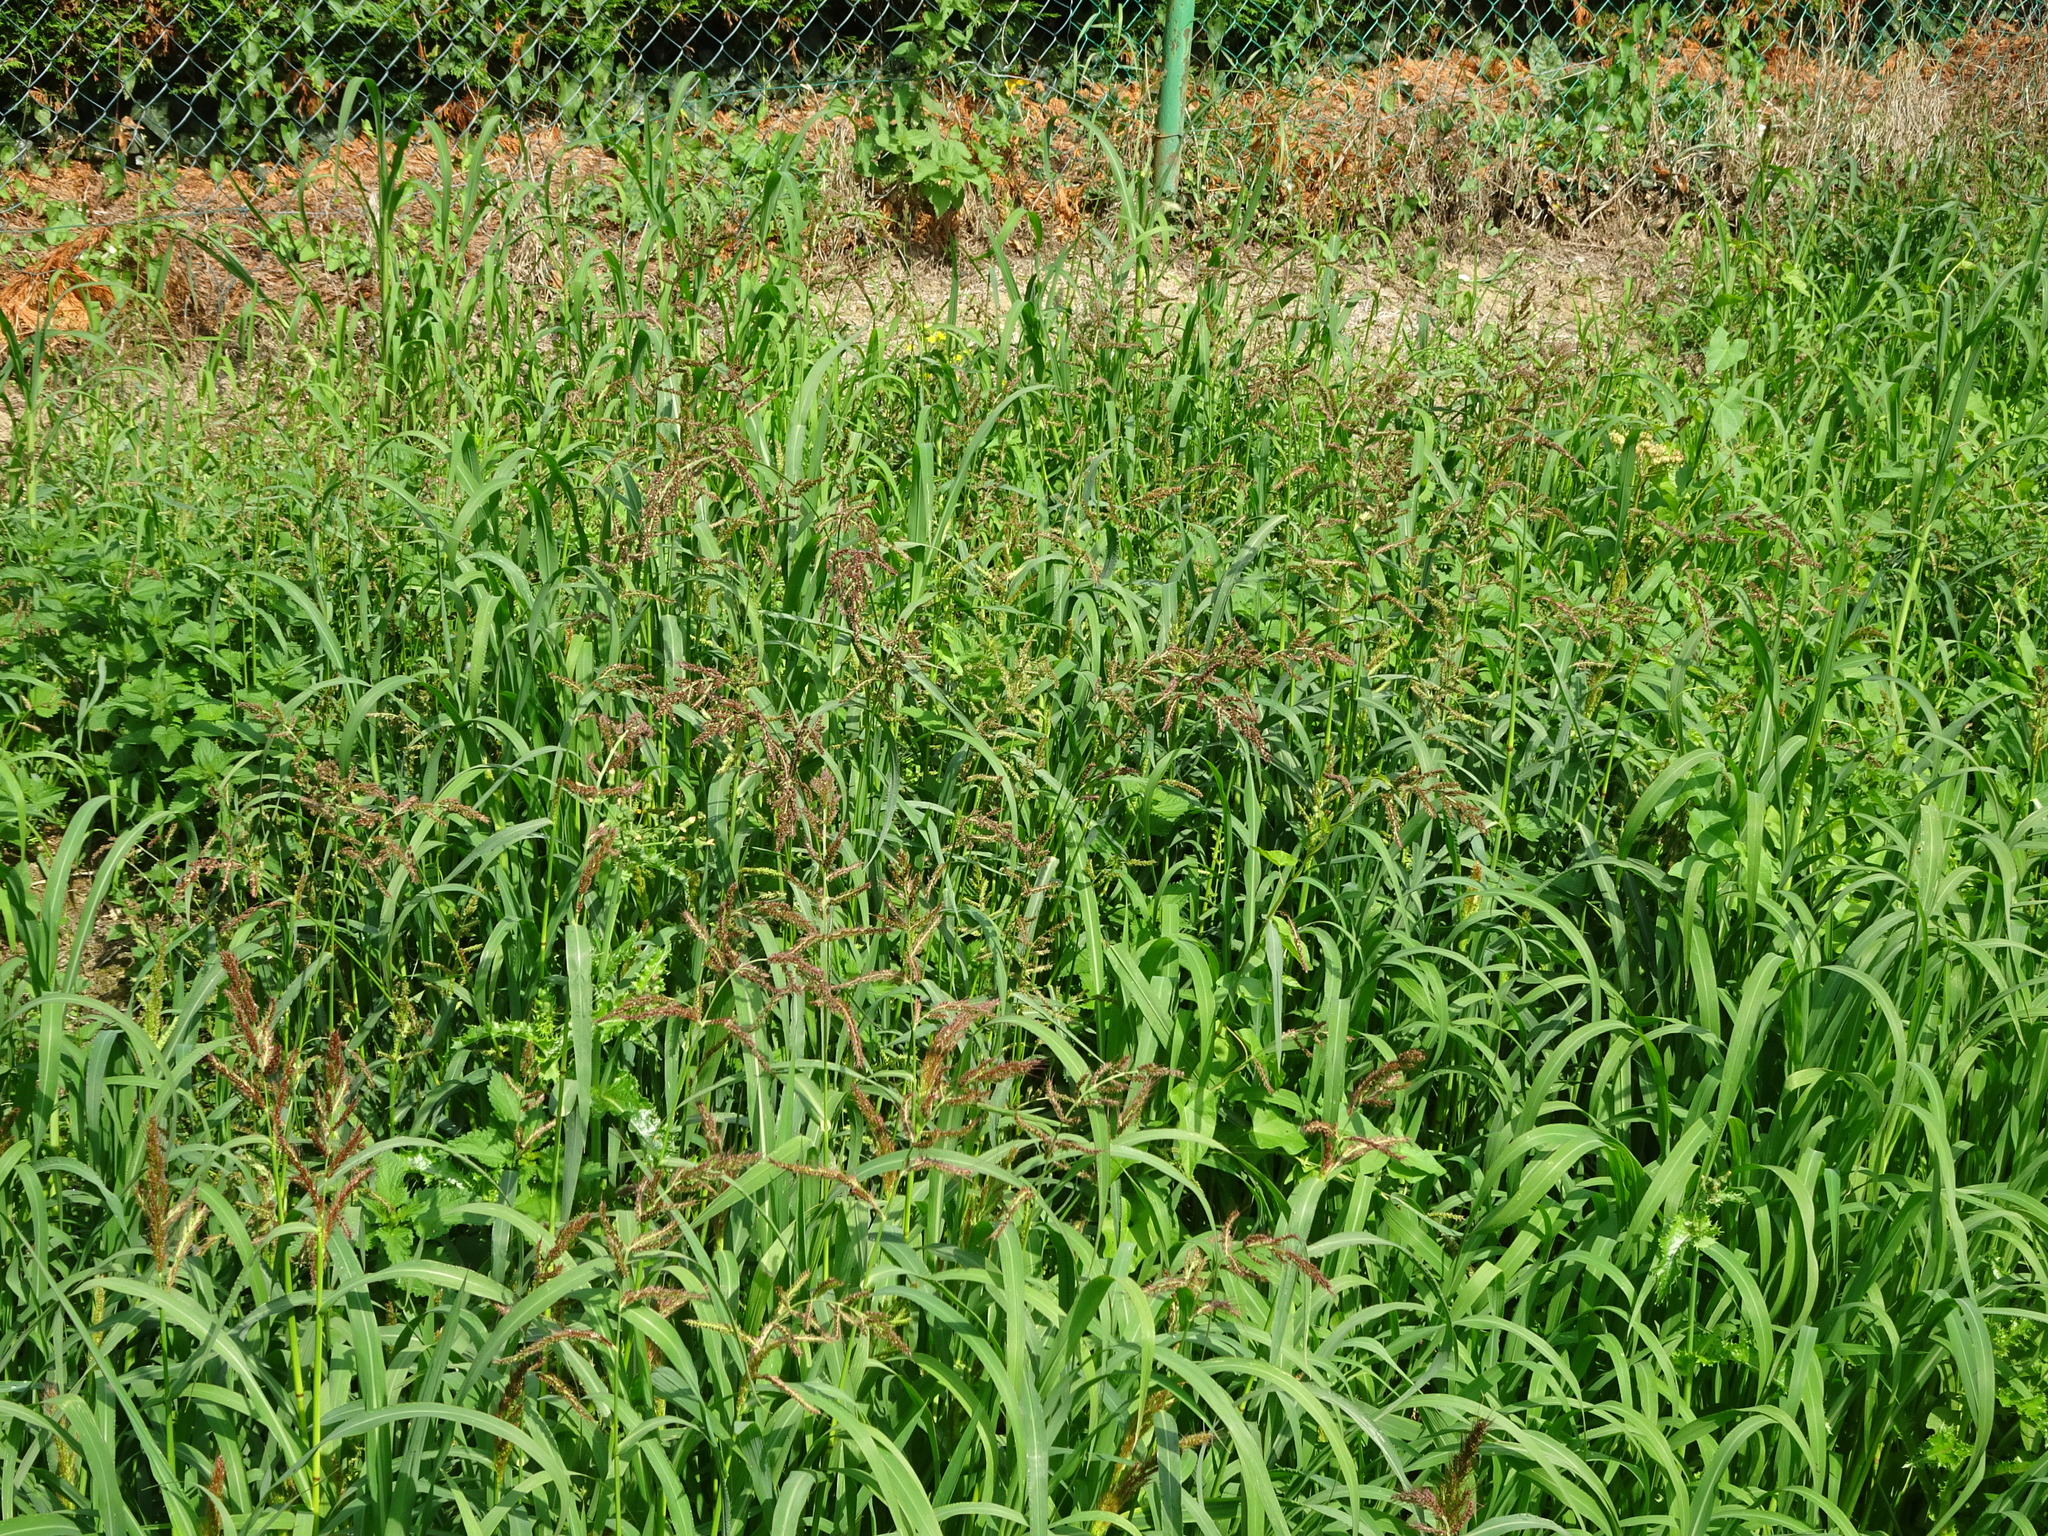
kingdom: Plantae
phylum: Tracheophyta
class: Liliopsida
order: Poales
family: Poaceae
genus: Echinochloa
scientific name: Echinochloa crus-galli
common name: Cockspur
